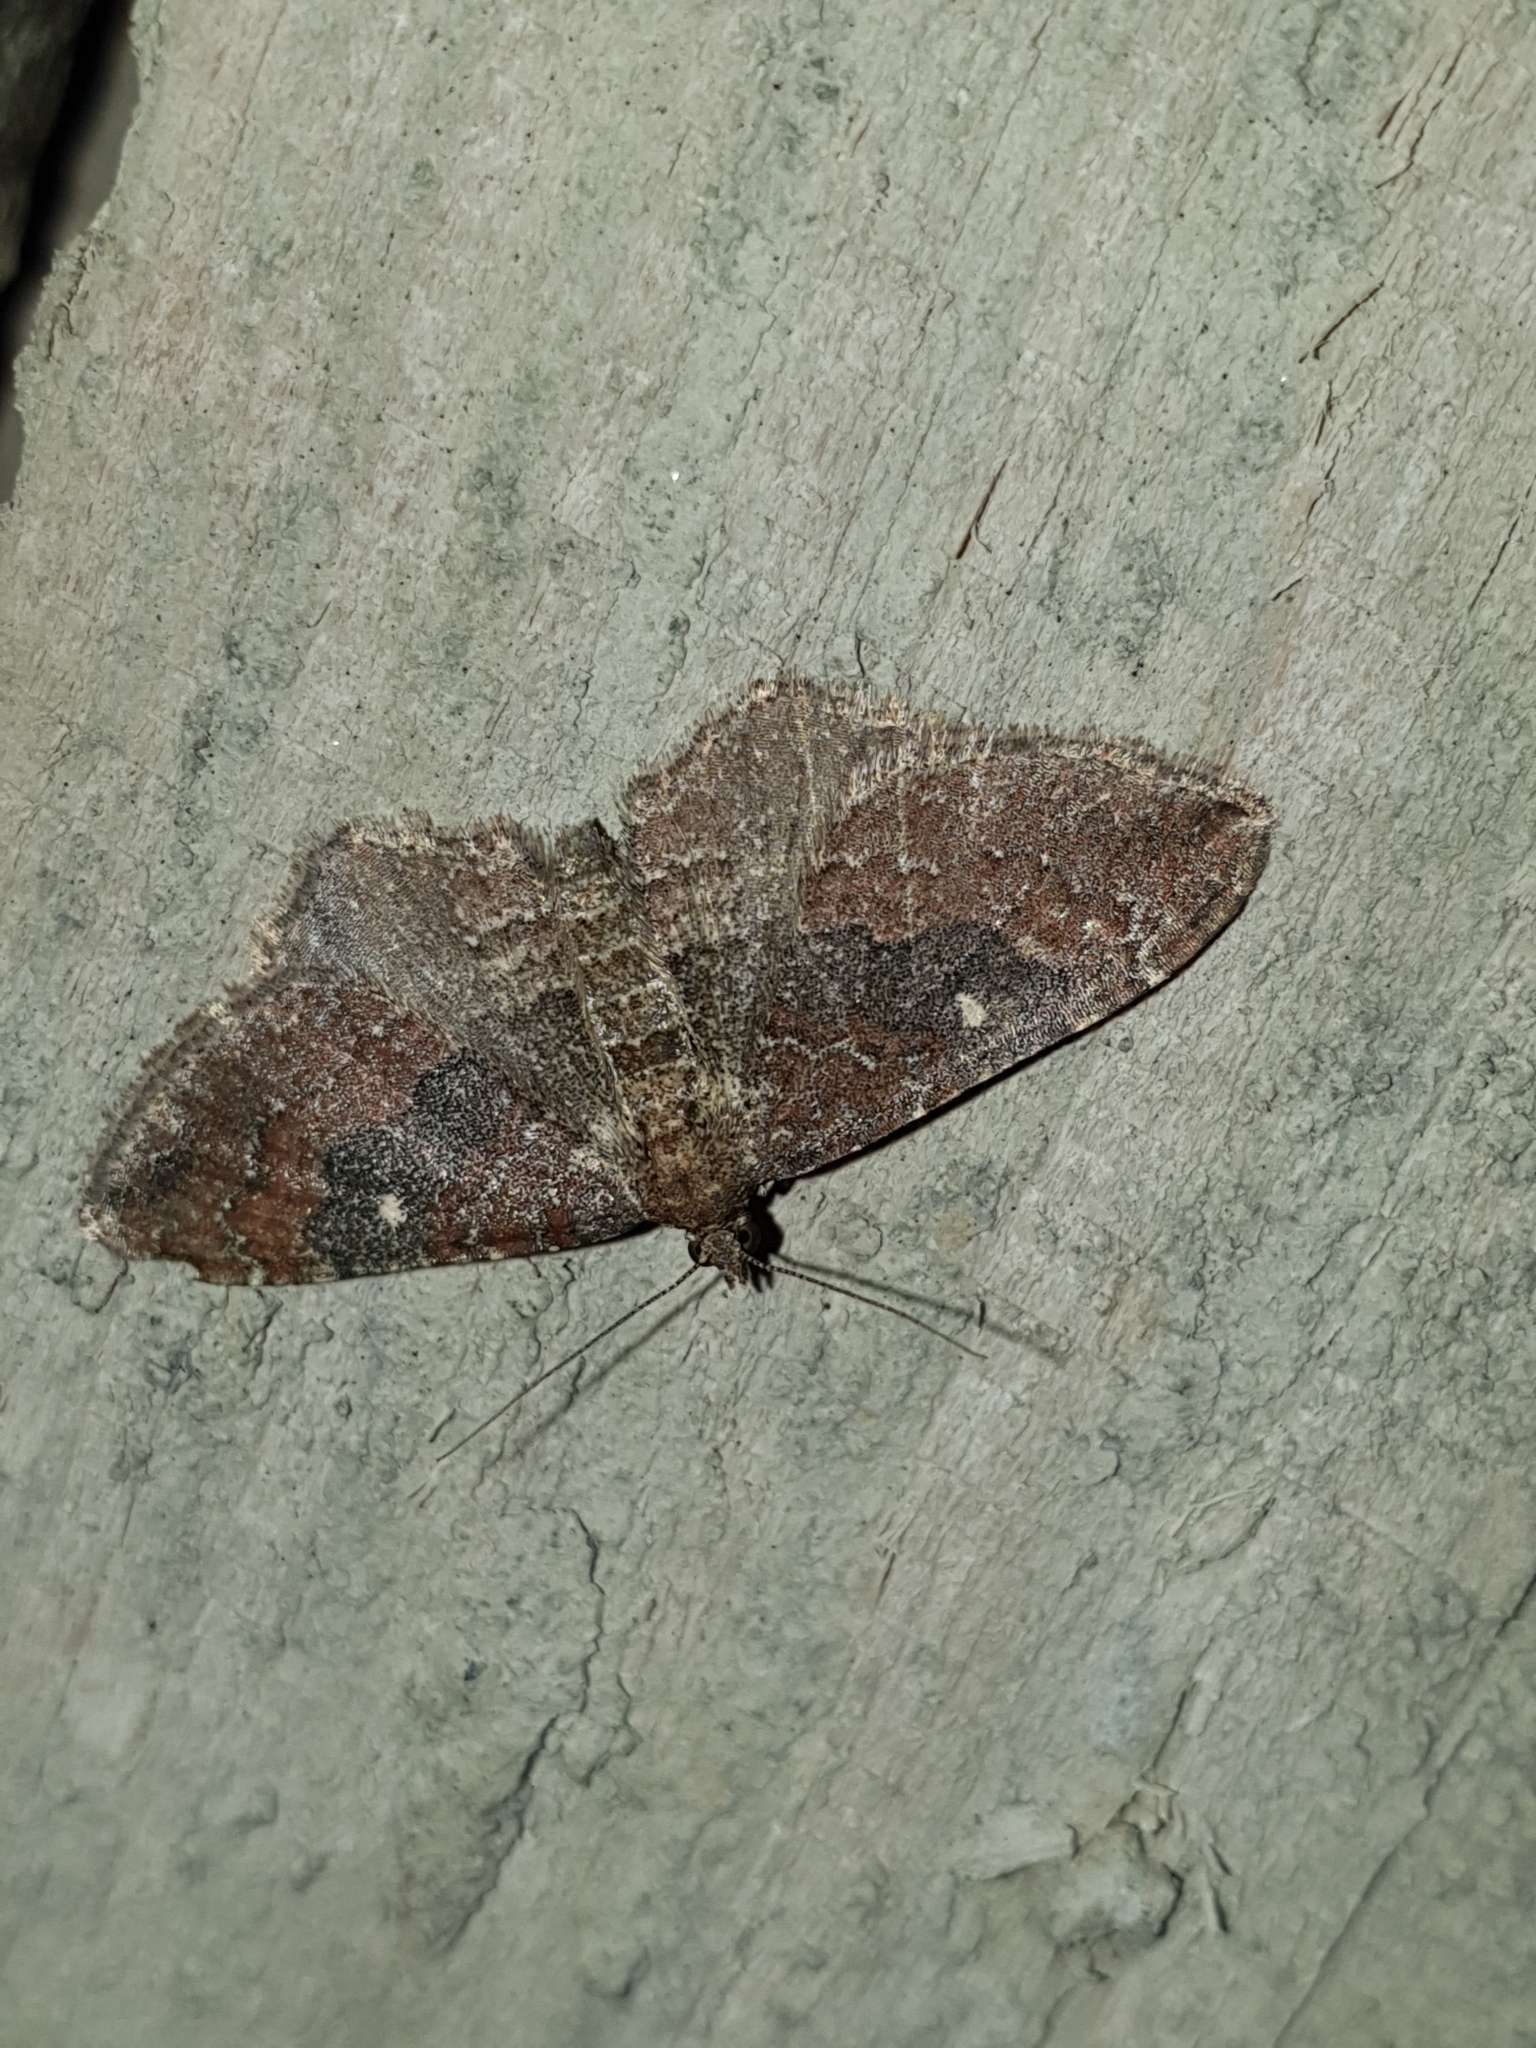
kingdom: Animalia
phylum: Arthropoda
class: Insecta
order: Lepidoptera
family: Geometridae
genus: Orthonama
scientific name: Orthonama obstipata
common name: The gem
